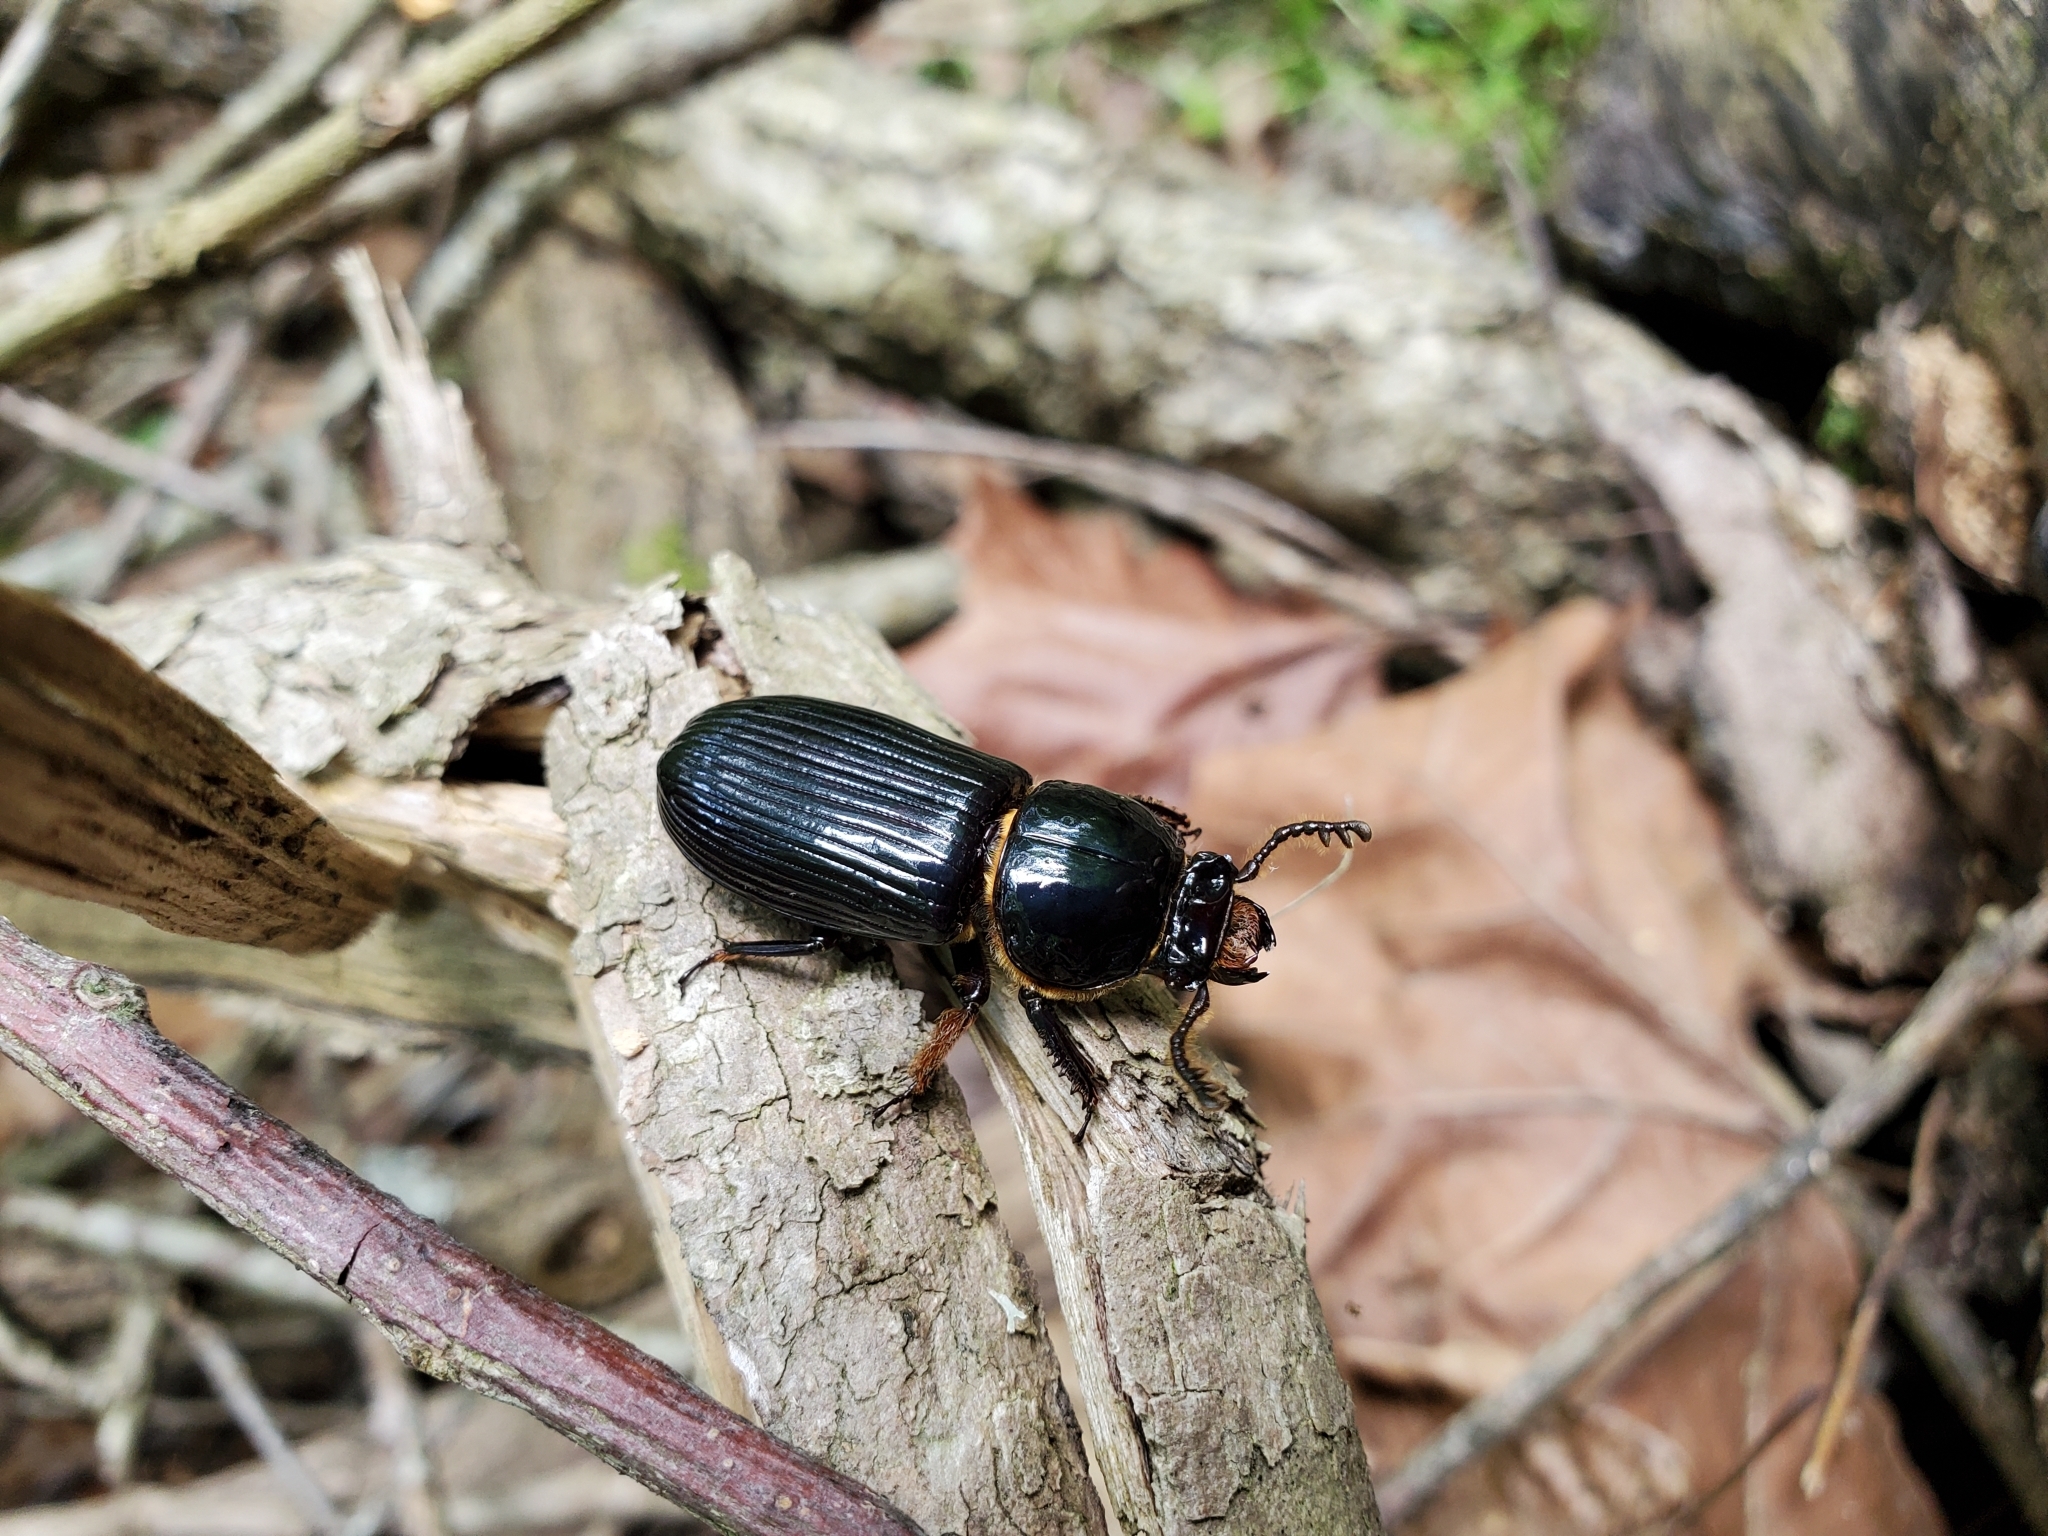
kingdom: Animalia
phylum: Arthropoda
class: Insecta
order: Coleoptera
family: Passalidae
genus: Odontotaenius
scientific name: Odontotaenius disjunctus
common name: Patent leather beetle
